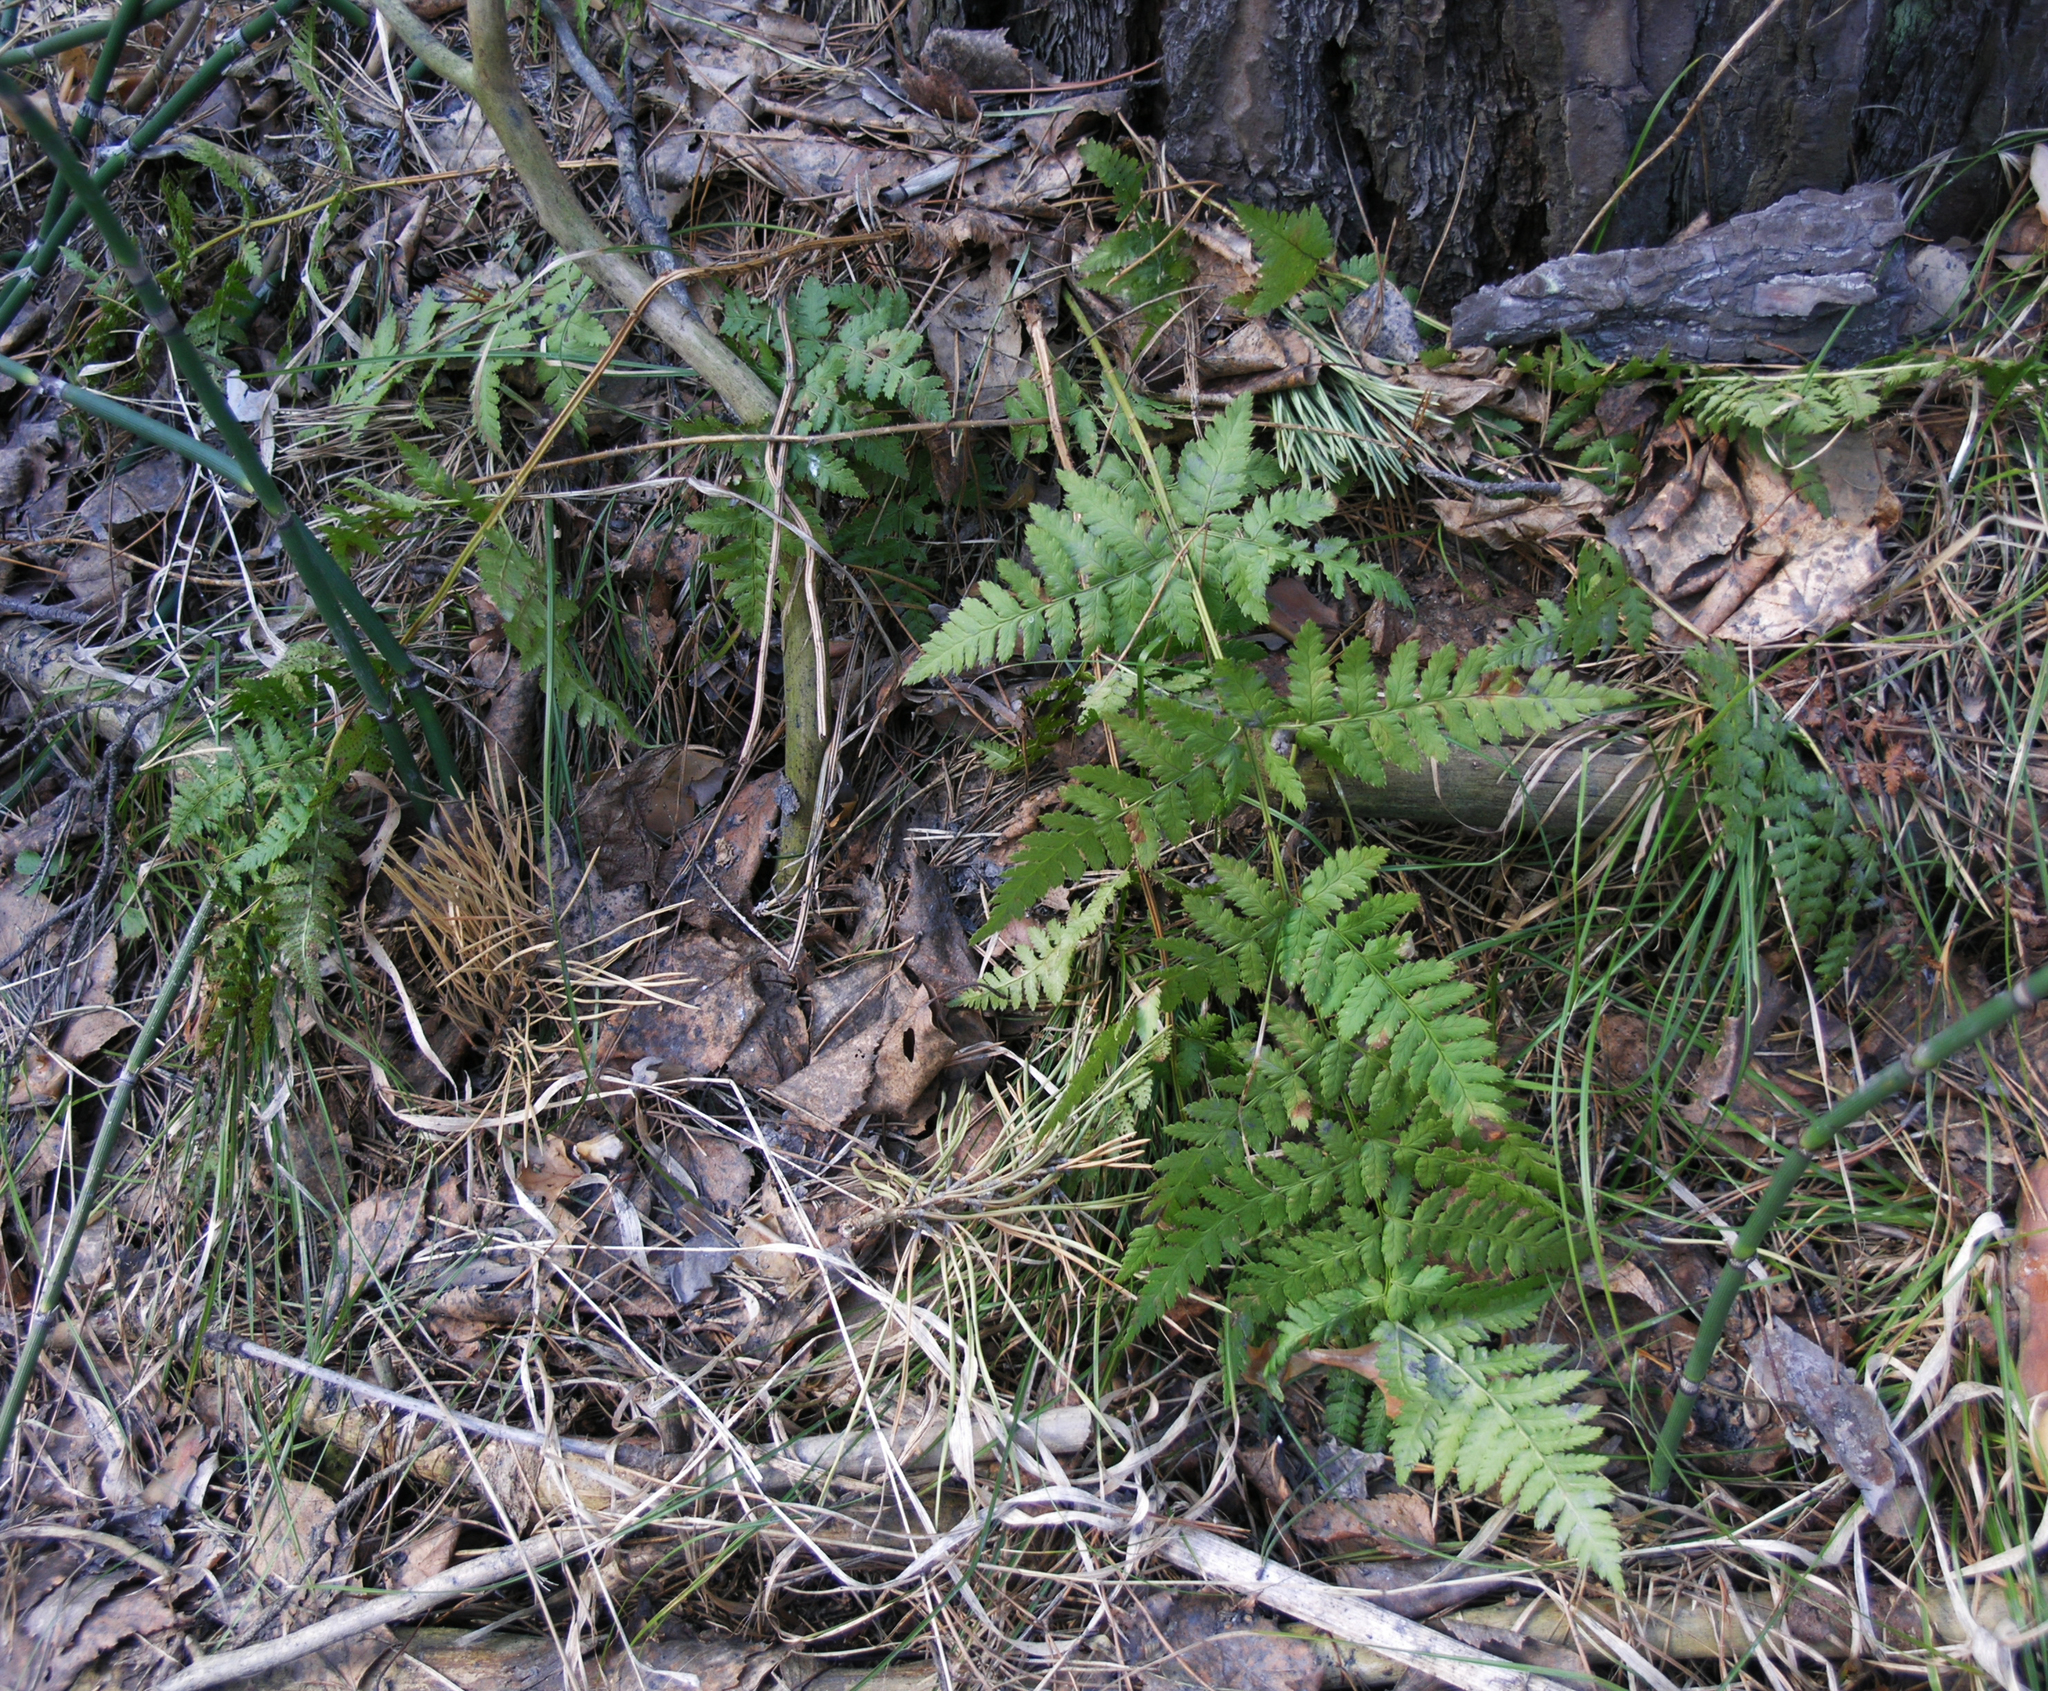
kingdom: Plantae
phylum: Tracheophyta
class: Polypodiopsida
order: Polypodiales
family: Dryopteridaceae
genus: Dryopteris
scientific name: Dryopteris carthusiana
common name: Narrow buckler-fern
